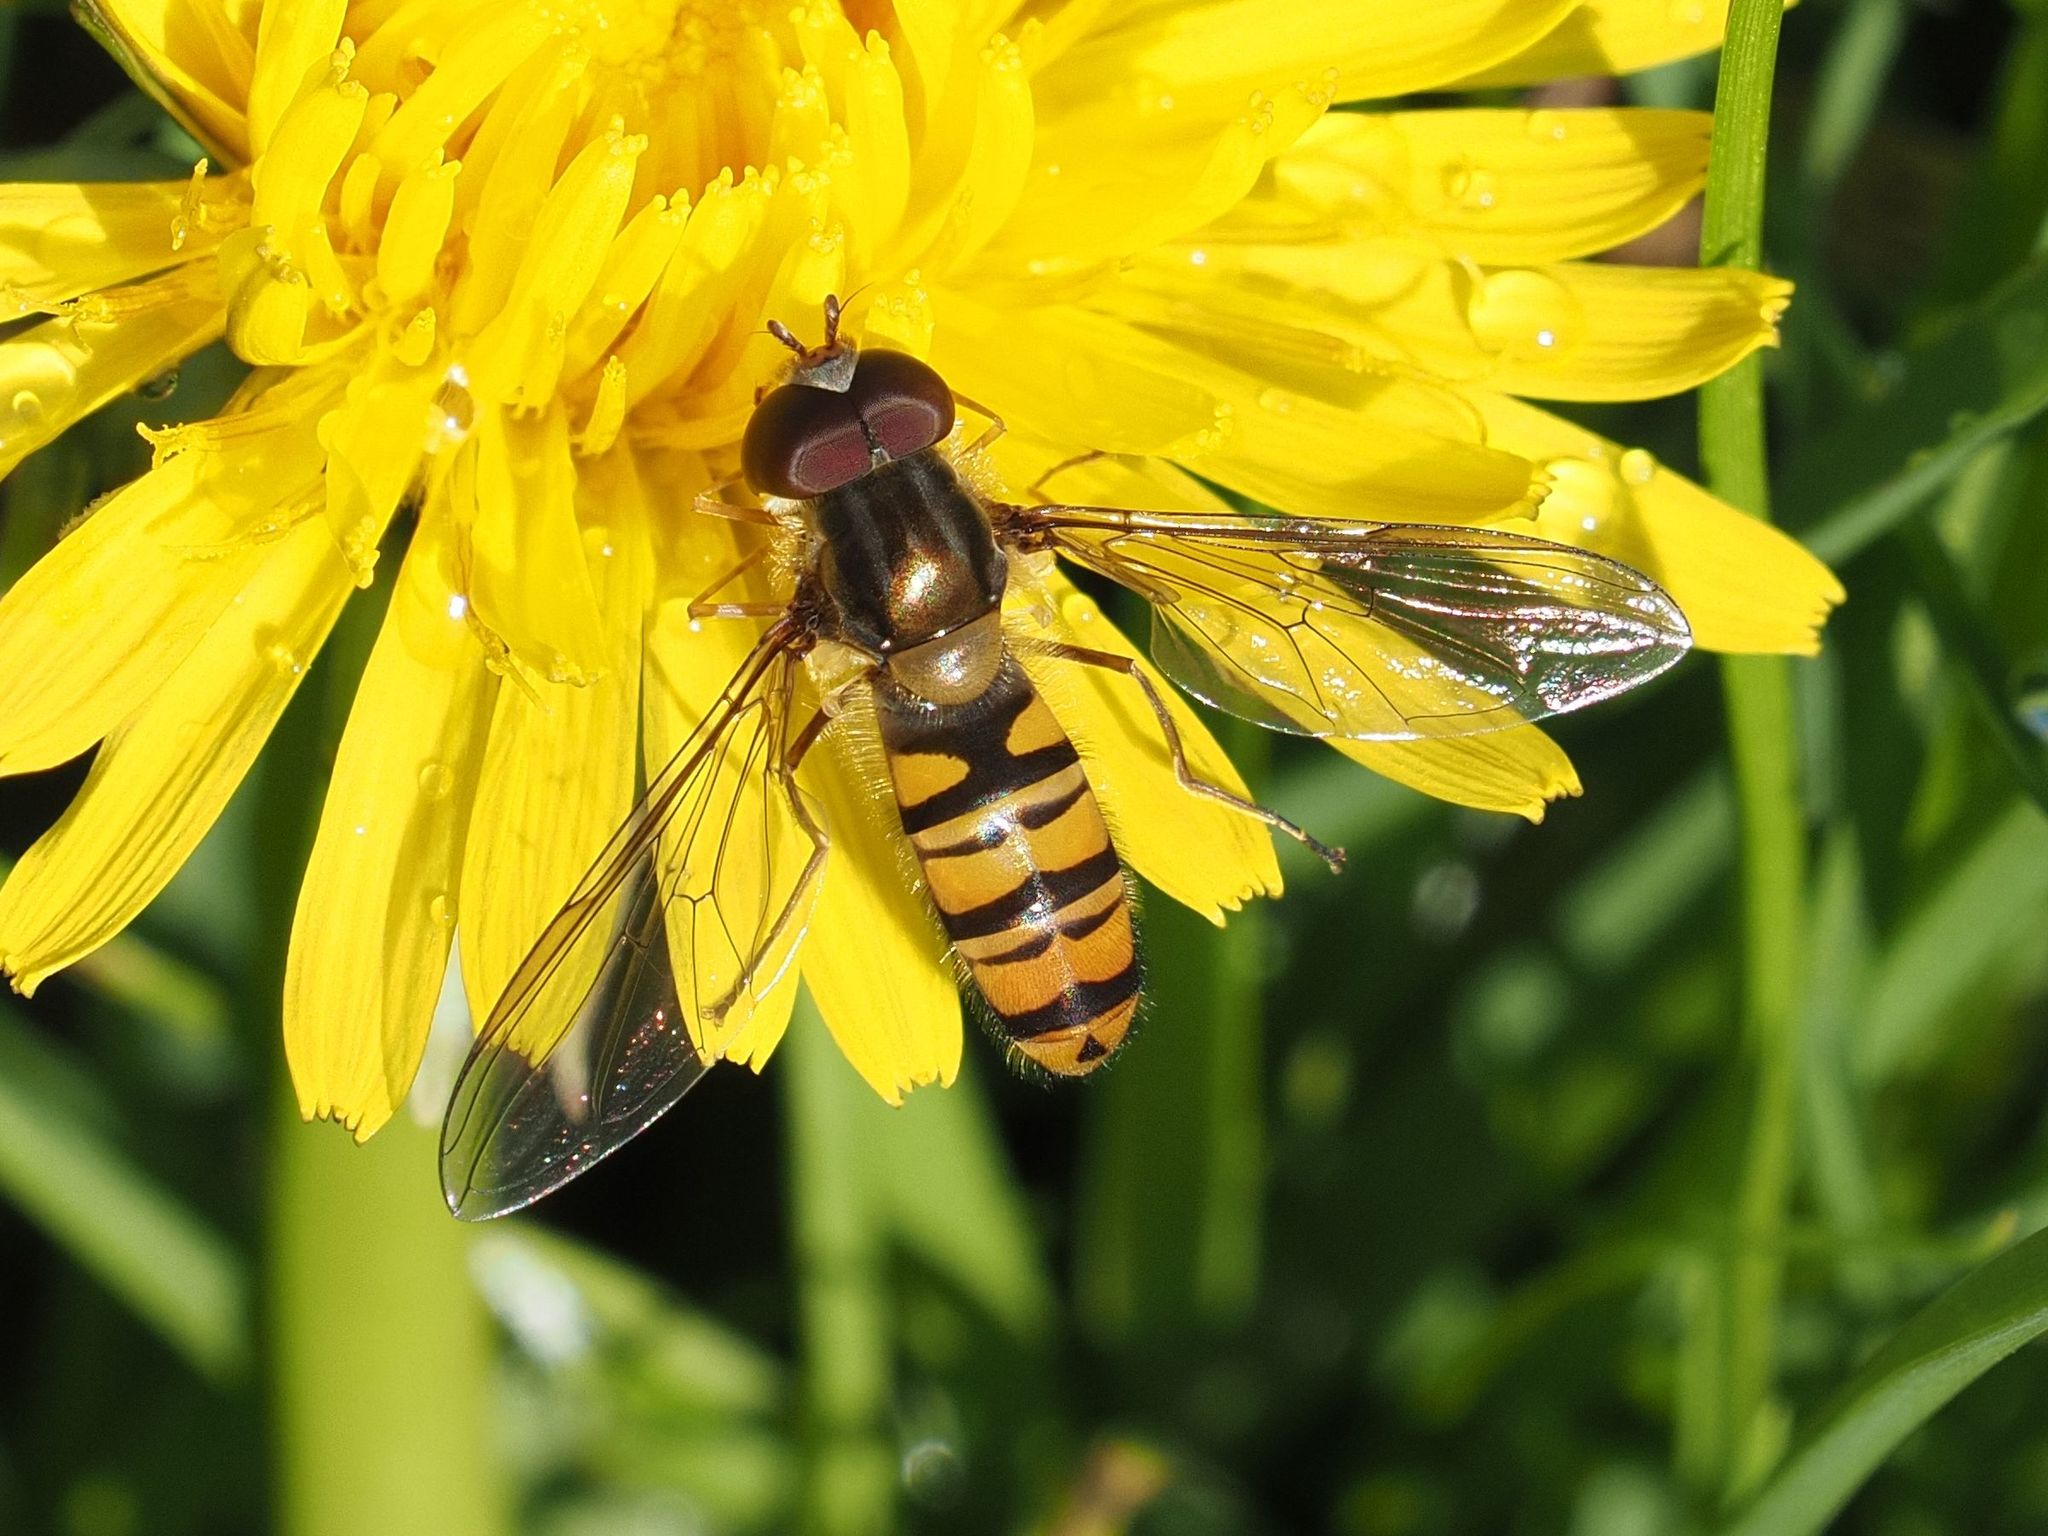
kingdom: Animalia
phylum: Arthropoda
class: Insecta
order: Diptera
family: Syrphidae
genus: Episyrphus
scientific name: Episyrphus balteatus
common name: Marmalade hoverfly
